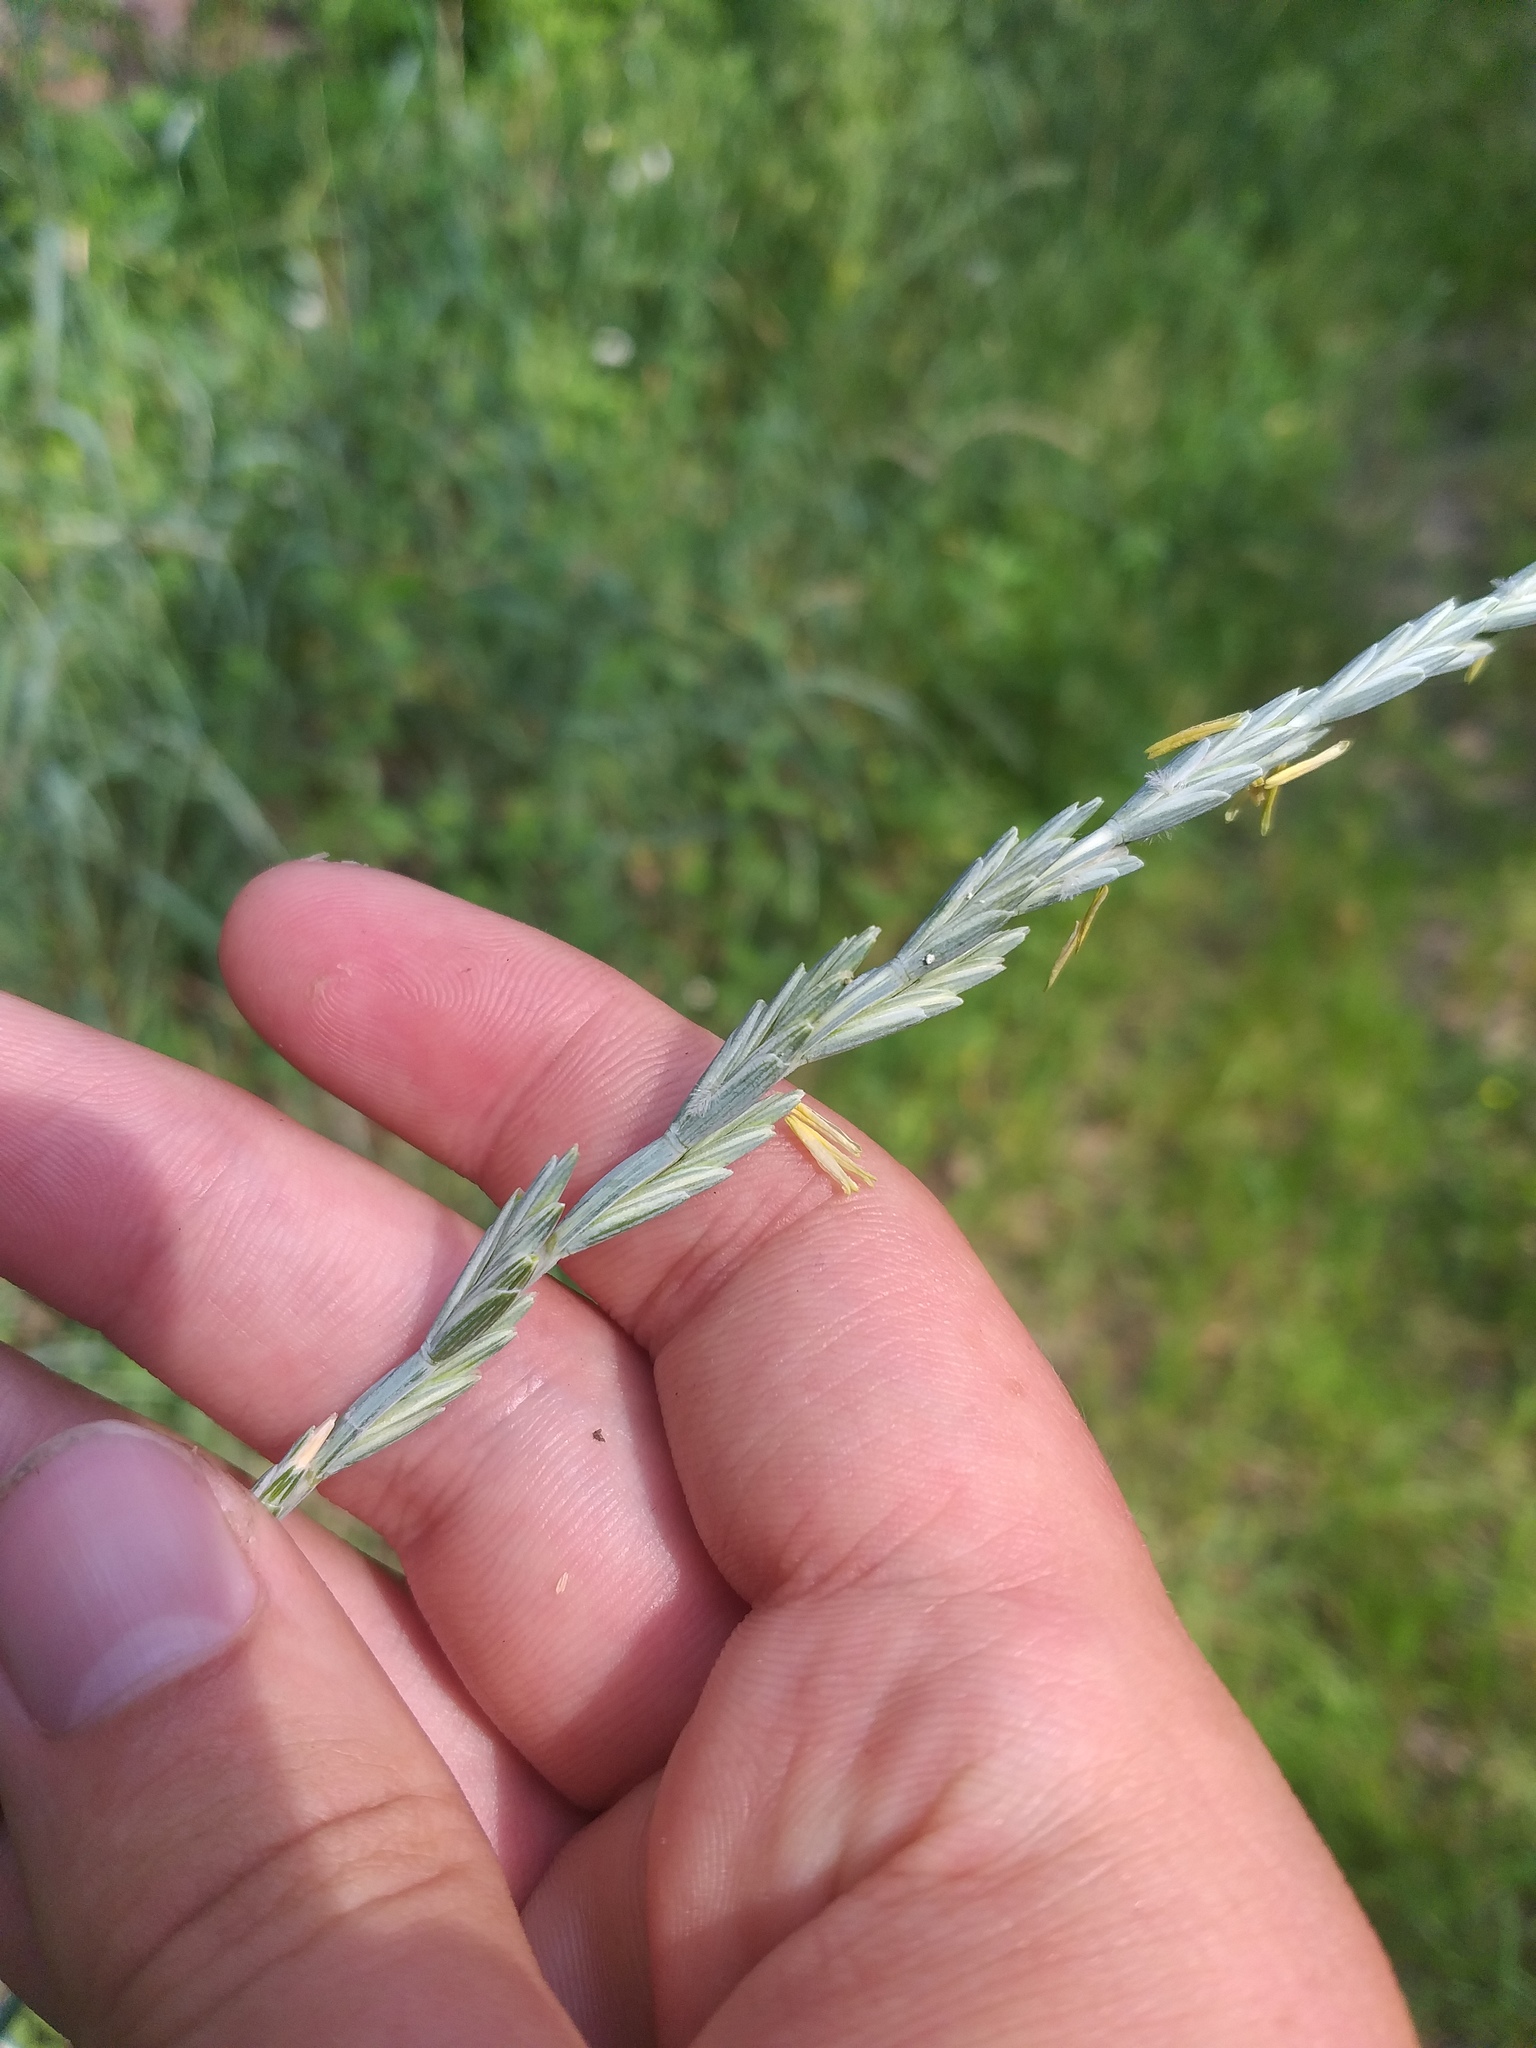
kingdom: Plantae
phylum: Tracheophyta
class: Liliopsida
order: Poales
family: Poaceae
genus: Thinopyrum
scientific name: Thinopyrum intermedium
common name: Intermediate wheatgrass
